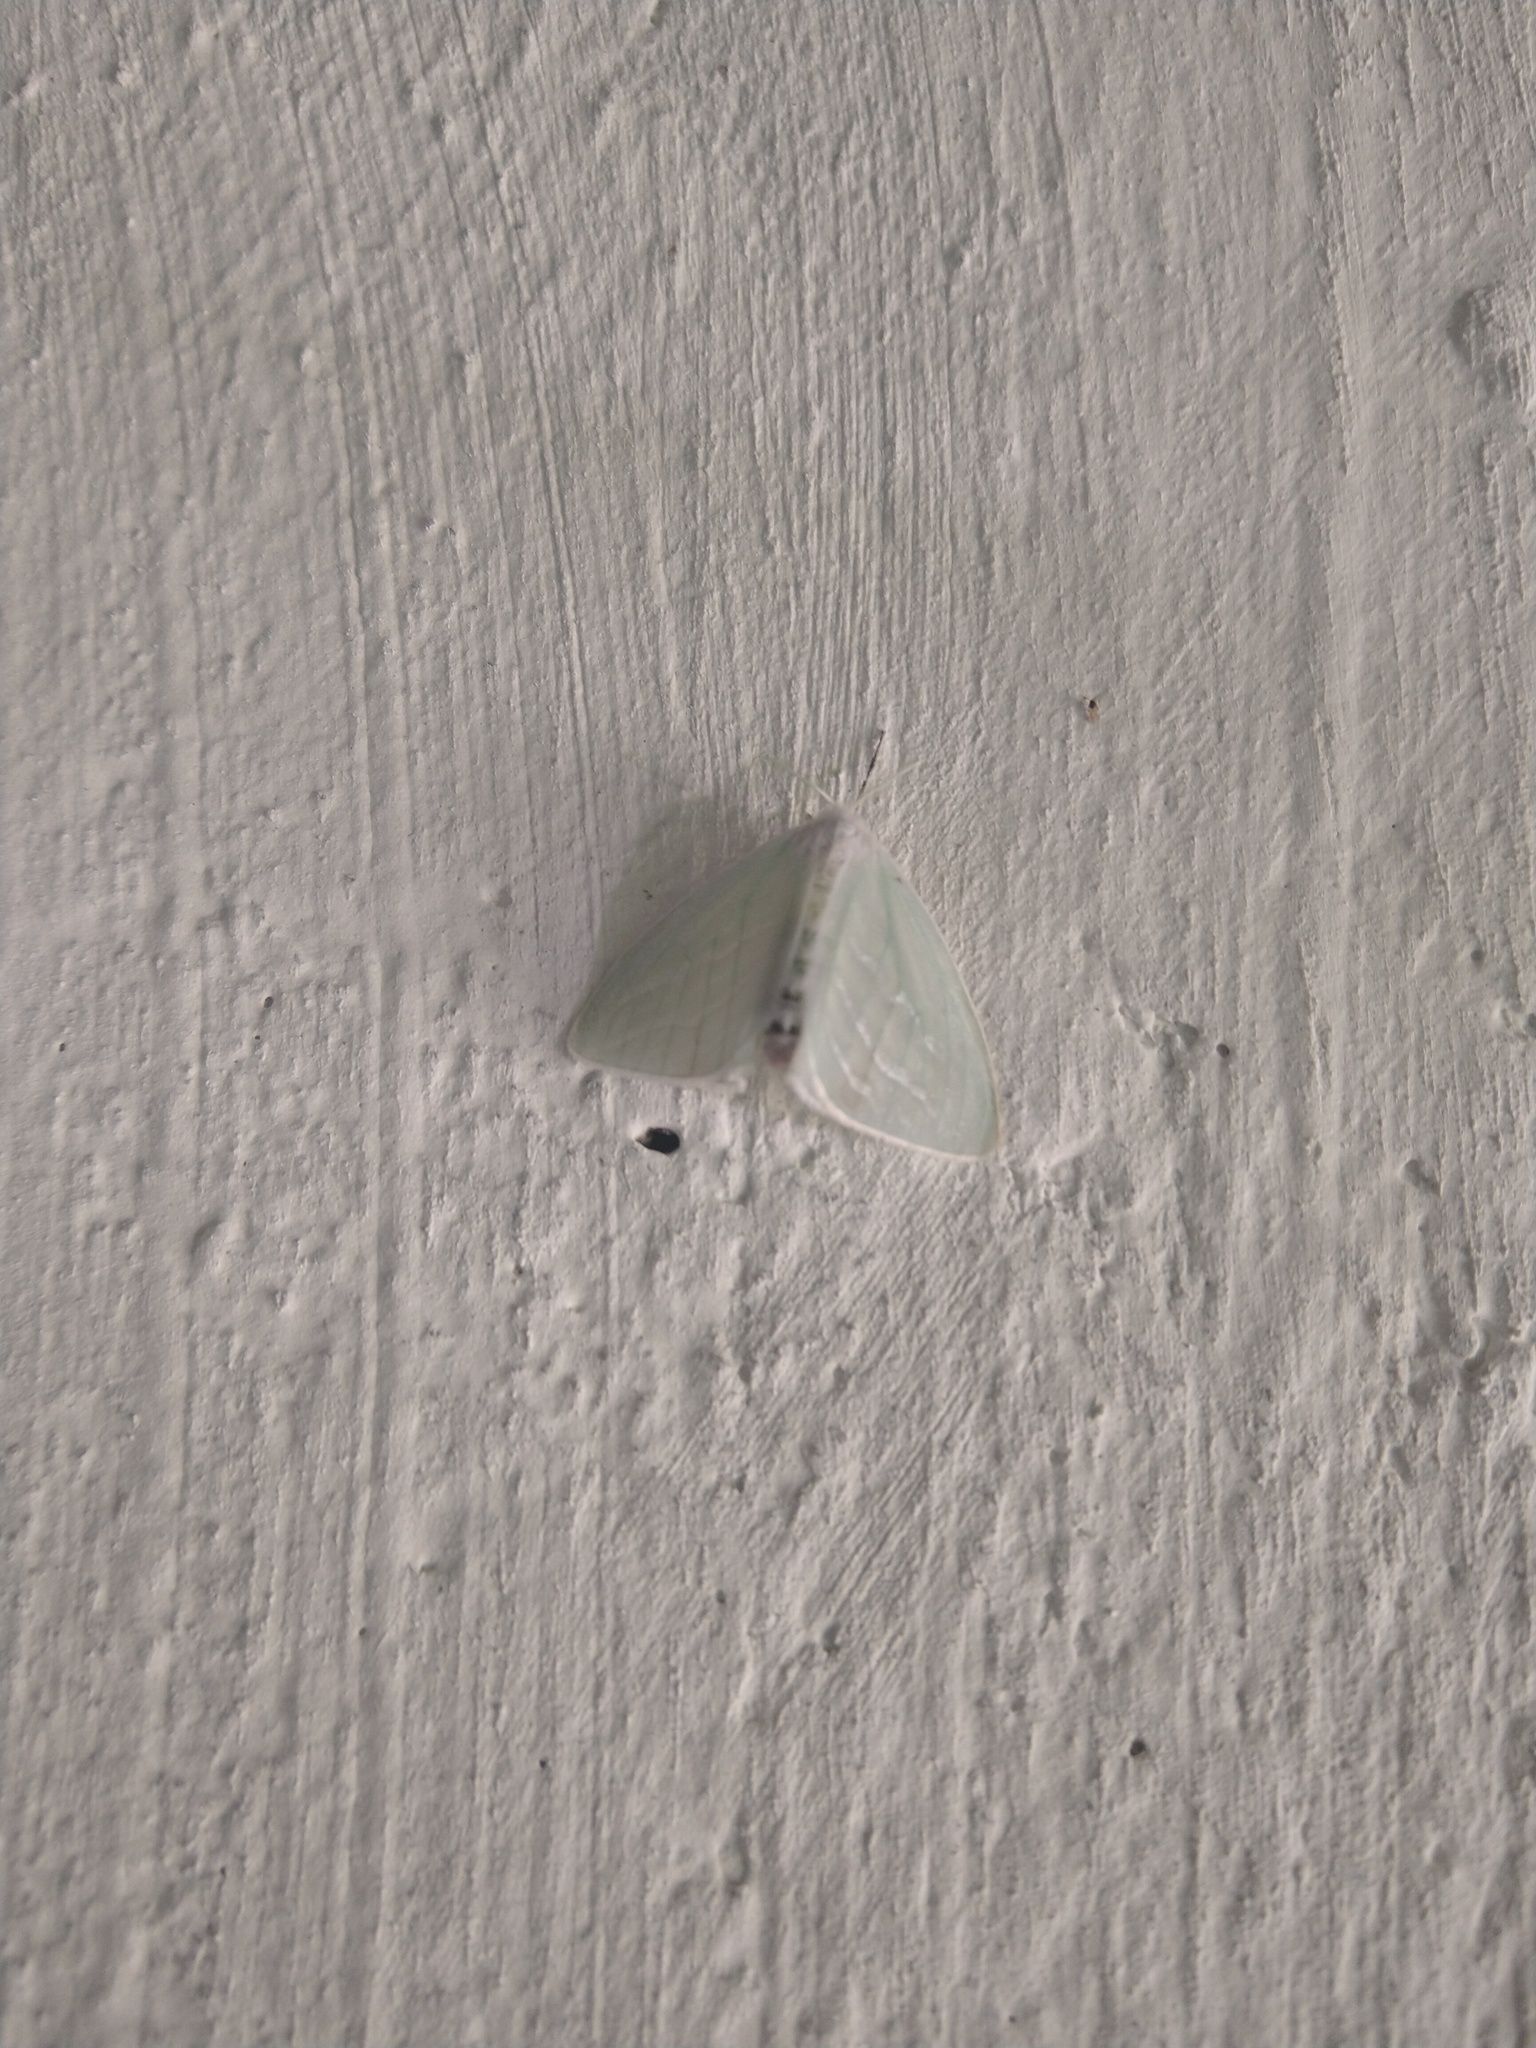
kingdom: Animalia
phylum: Arthropoda
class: Insecta
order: Lepidoptera
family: Erebidae
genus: Caviria
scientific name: Caviria regina
